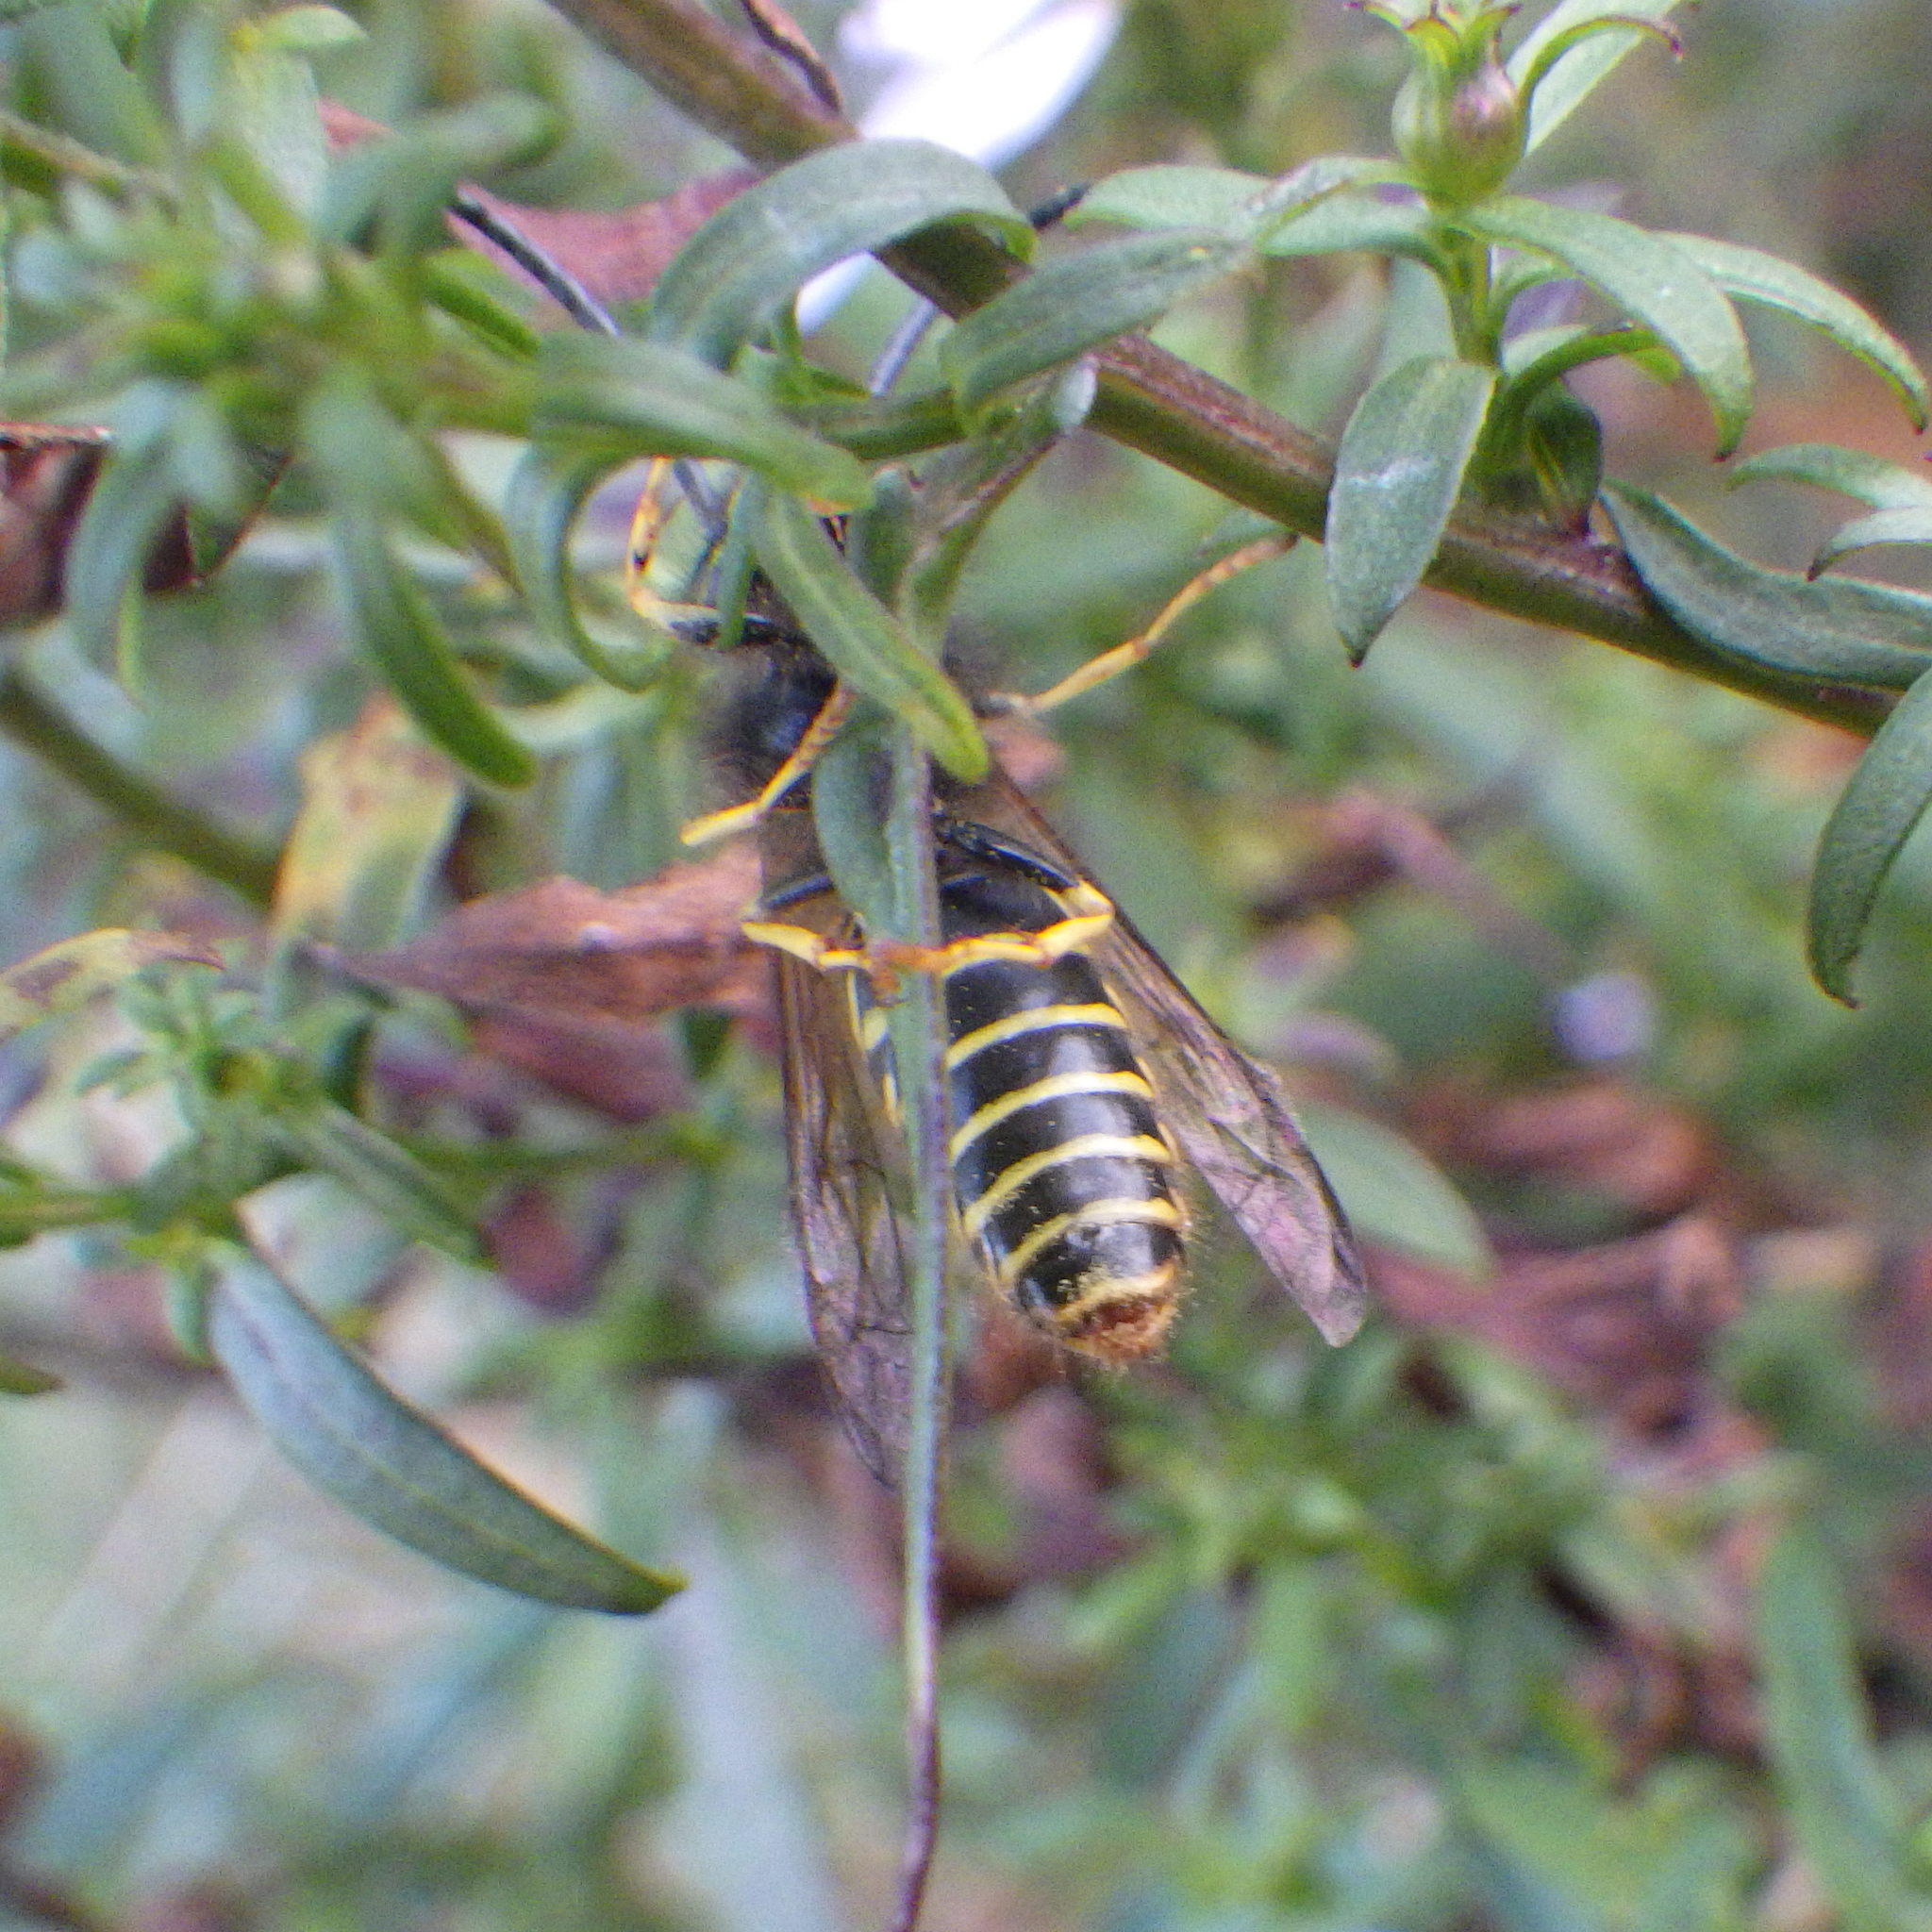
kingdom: Animalia
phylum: Arthropoda
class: Insecta
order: Hymenoptera
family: Vespidae
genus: Vespula
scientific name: Vespula alascensis
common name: Alaska yellowjacket
